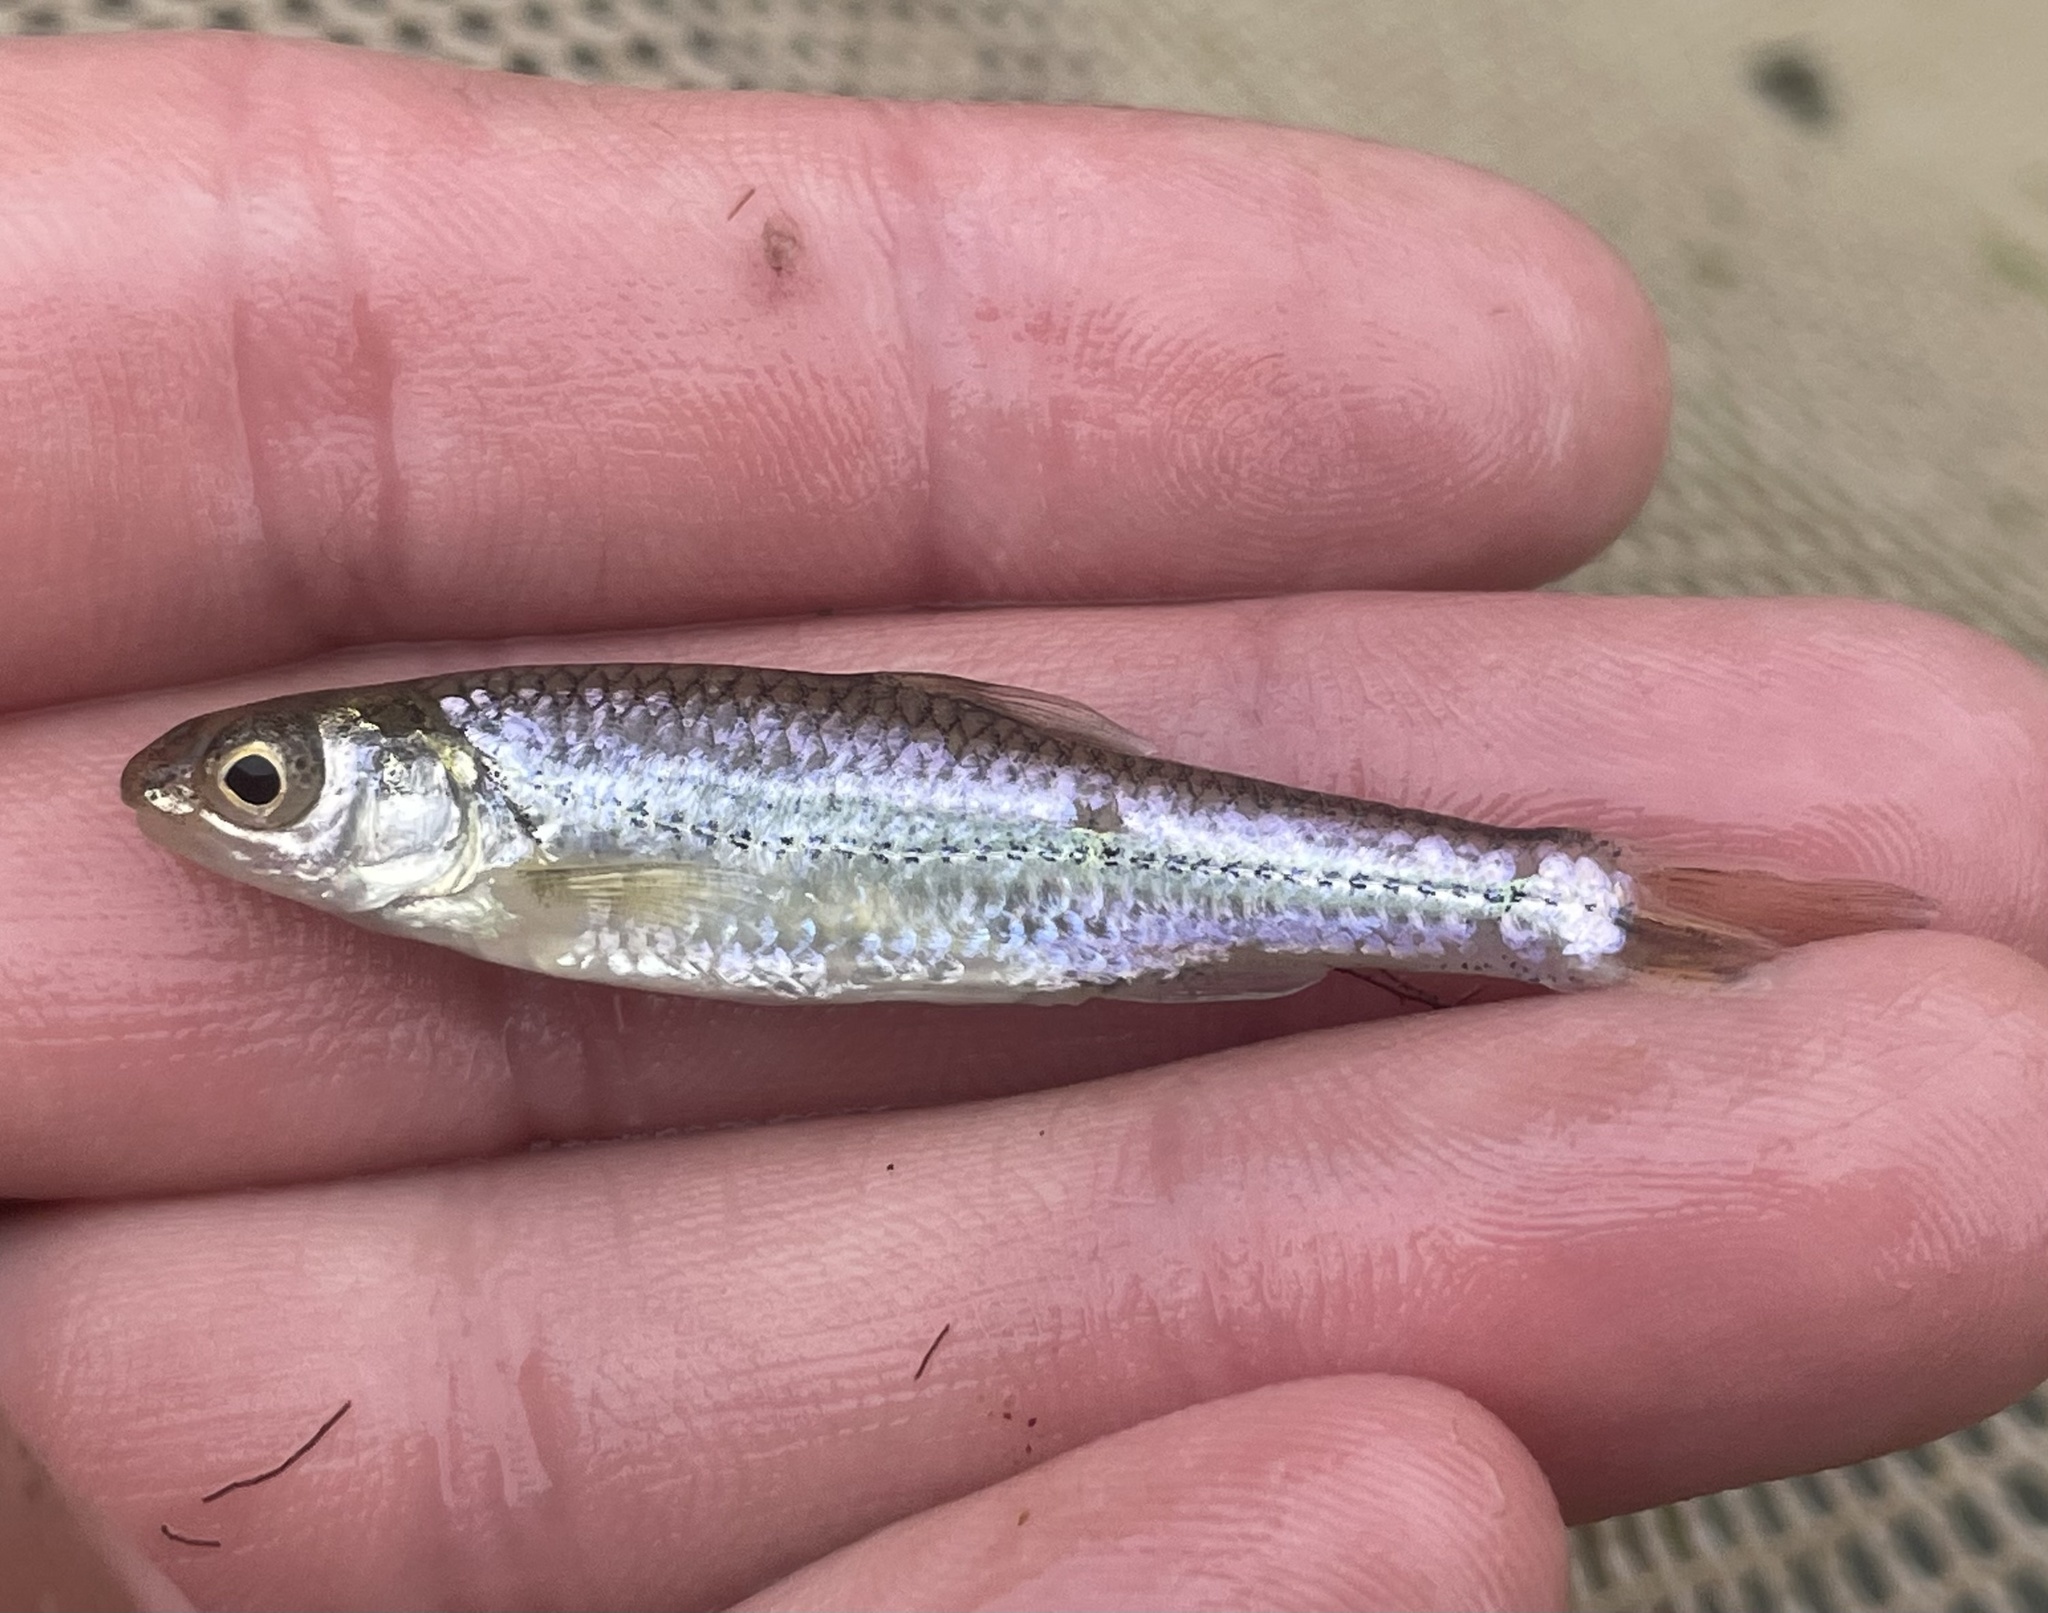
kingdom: Animalia
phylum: Chordata
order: Cypriniformes
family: Cyprinidae
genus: Notropis
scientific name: Notropis
